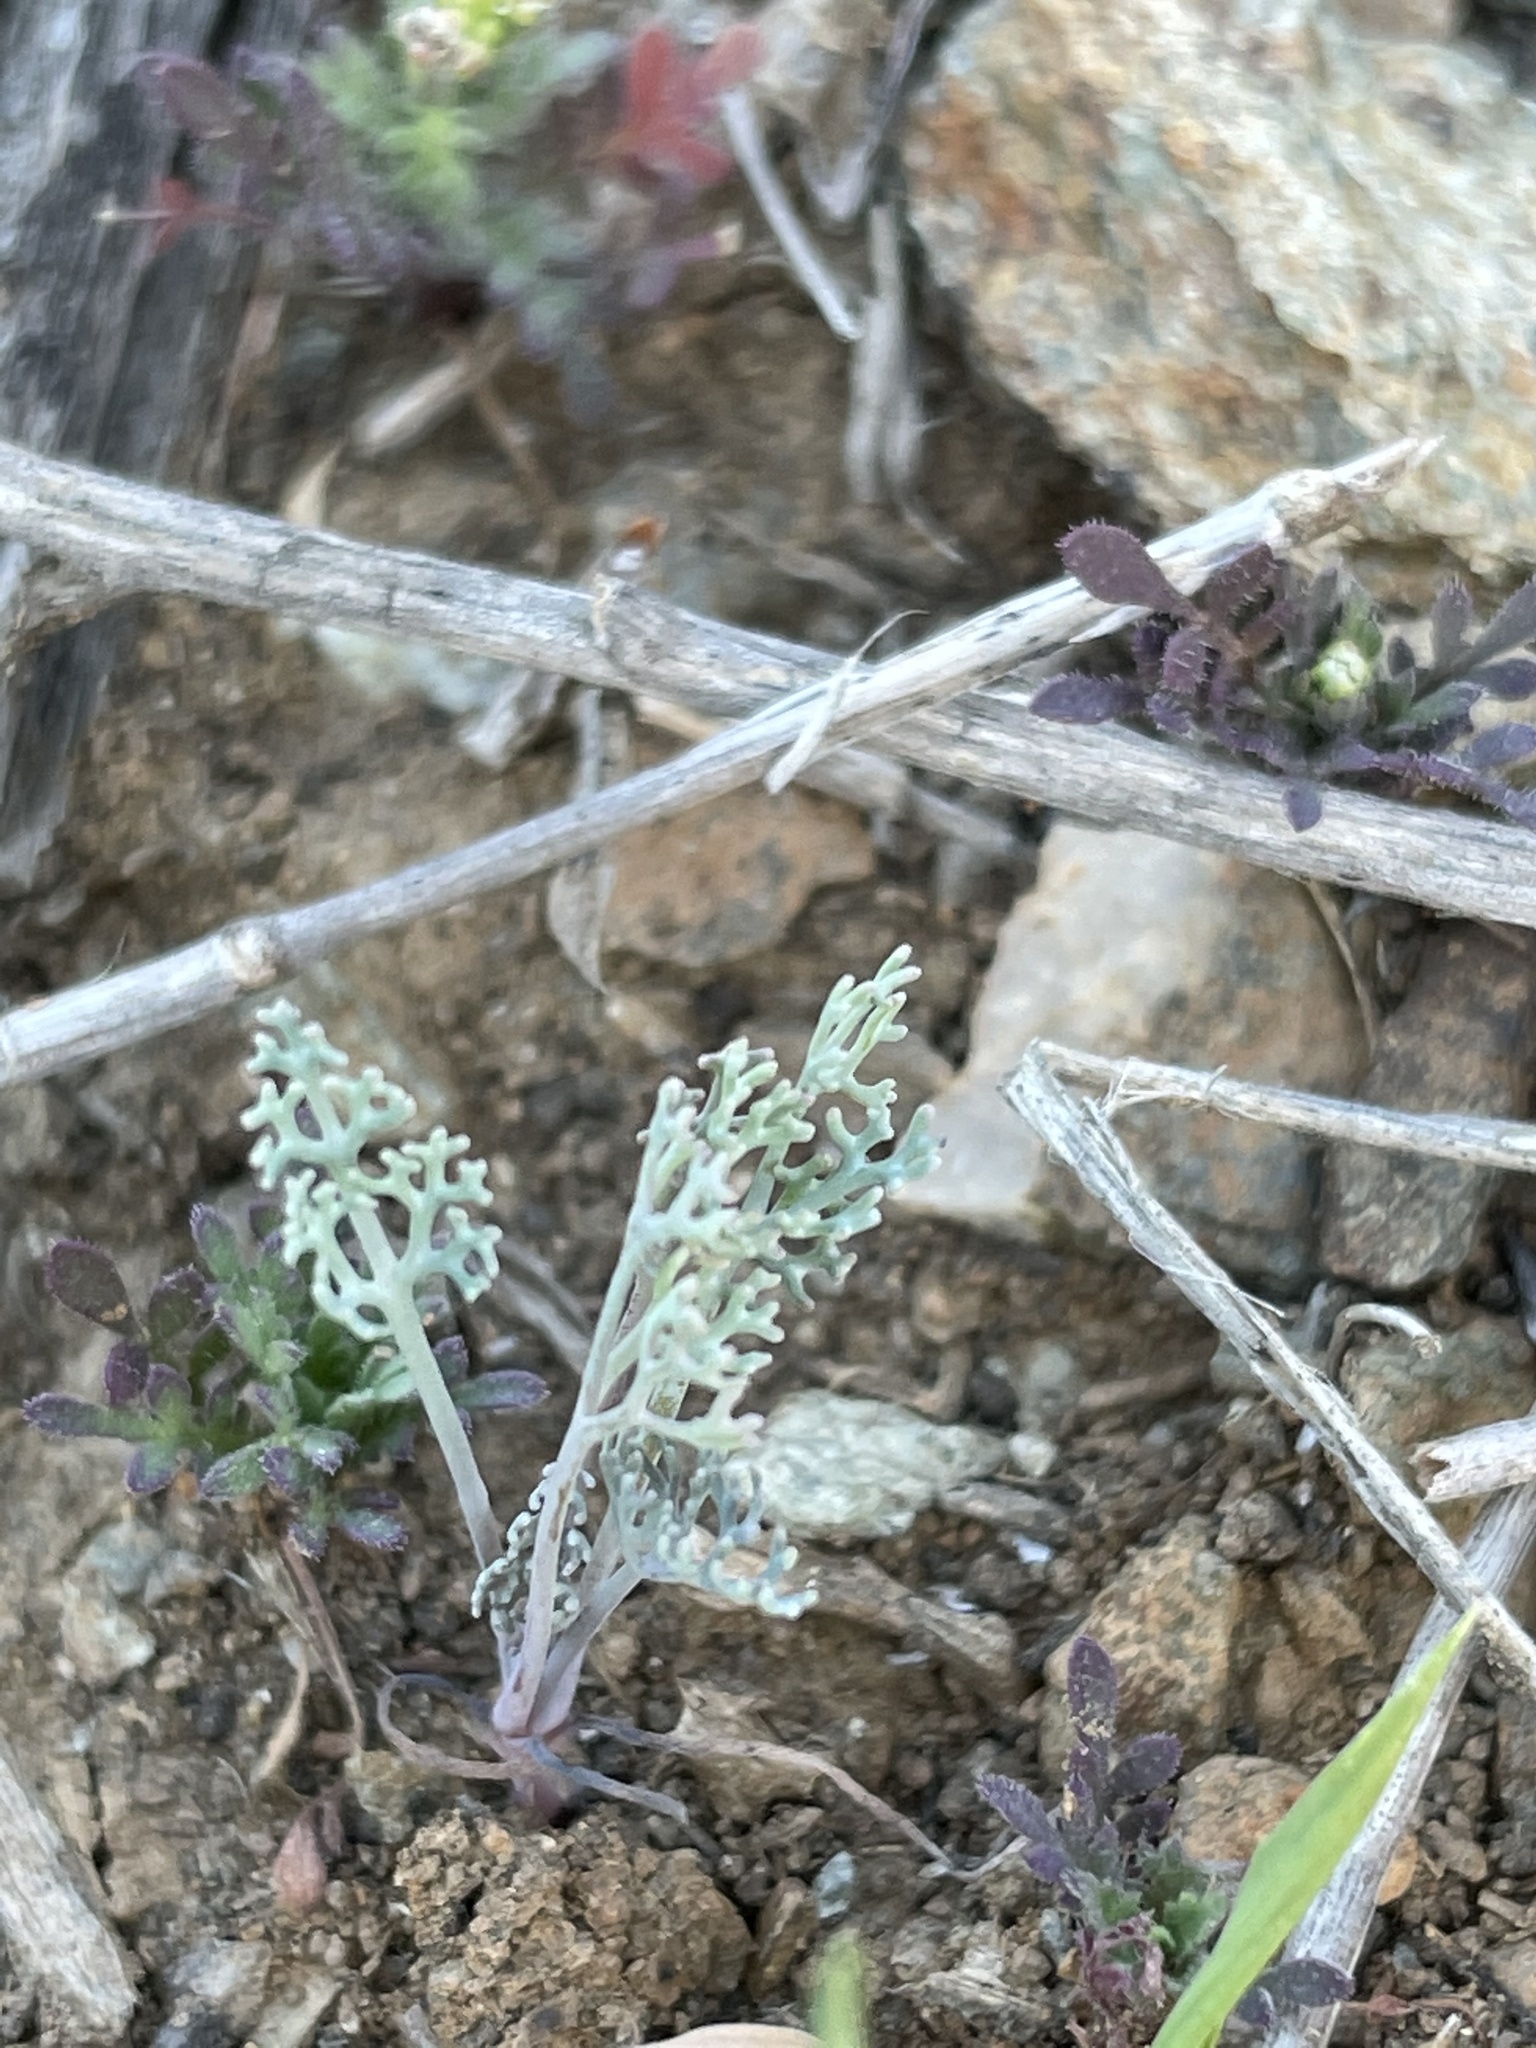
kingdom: Plantae
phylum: Tracheophyta
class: Magnoliopsida
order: Ranunculales
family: Papaveraceae
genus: Eschscholzia
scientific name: Eschscholzia ramosa
